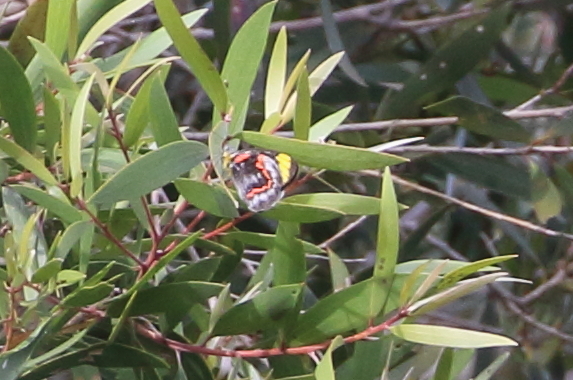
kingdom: Animalia
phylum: Arthropoda
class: Insecta
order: Lepidoptera
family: Pieridae
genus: Delias
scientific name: Delias nigrina
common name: Black jezebel
